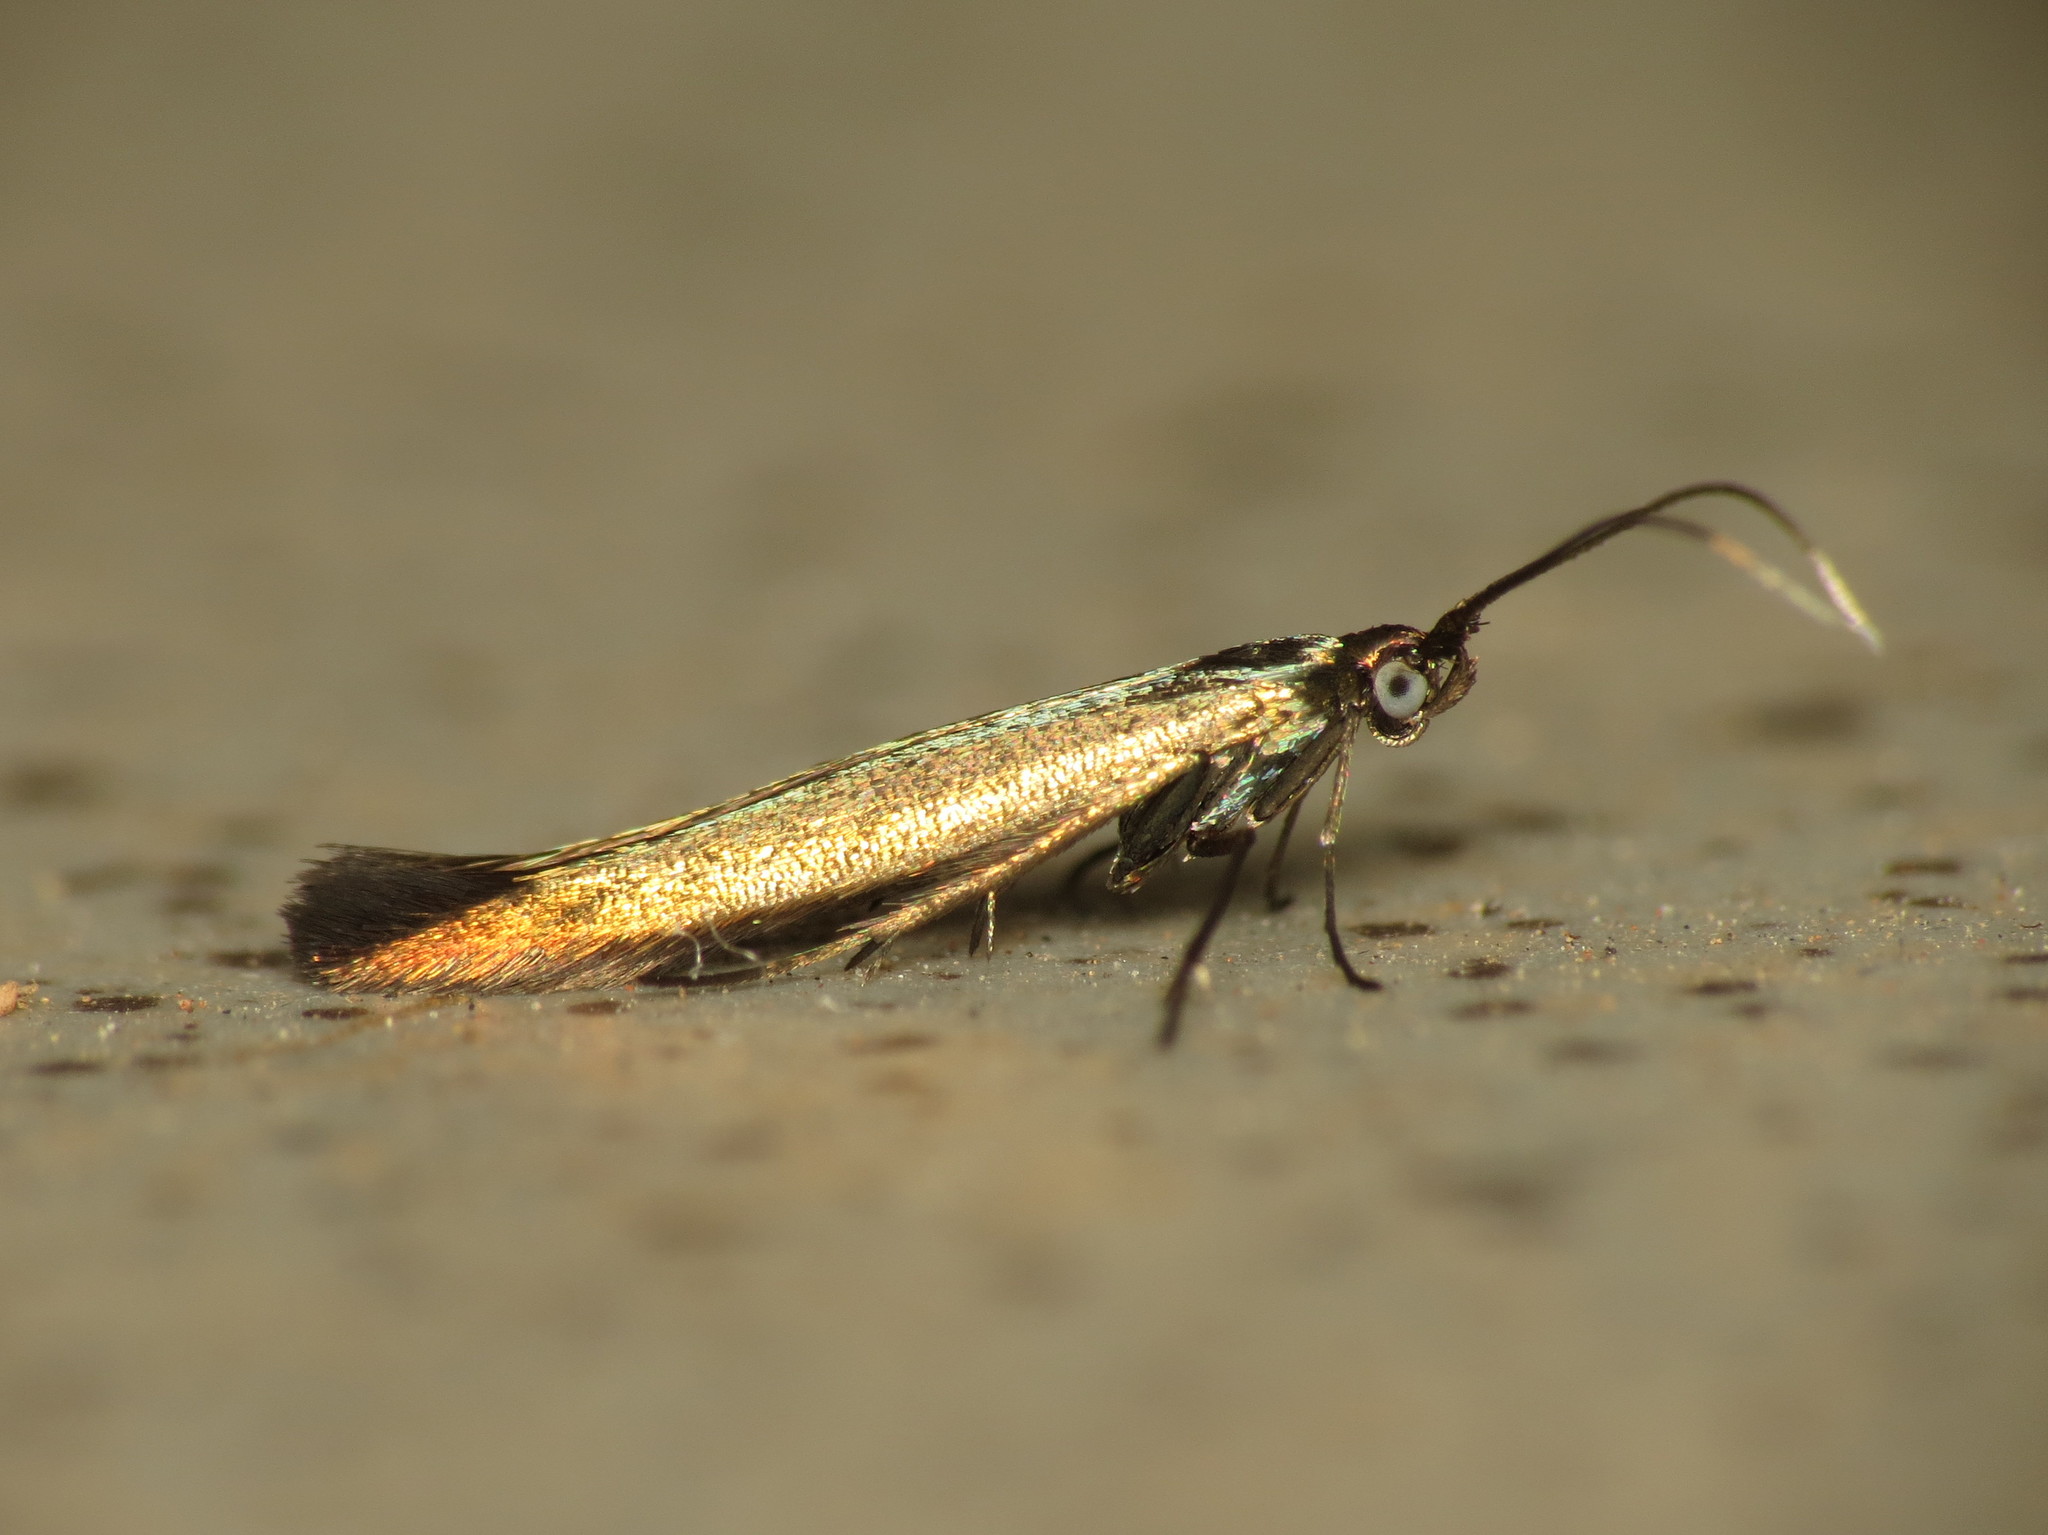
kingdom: Animalia
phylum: Arthropoda
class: Insecta
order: Lepidoptera
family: Coleophoridae
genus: Coleophora
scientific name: Coleophora alcyonipennella
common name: Clover case-bearer
